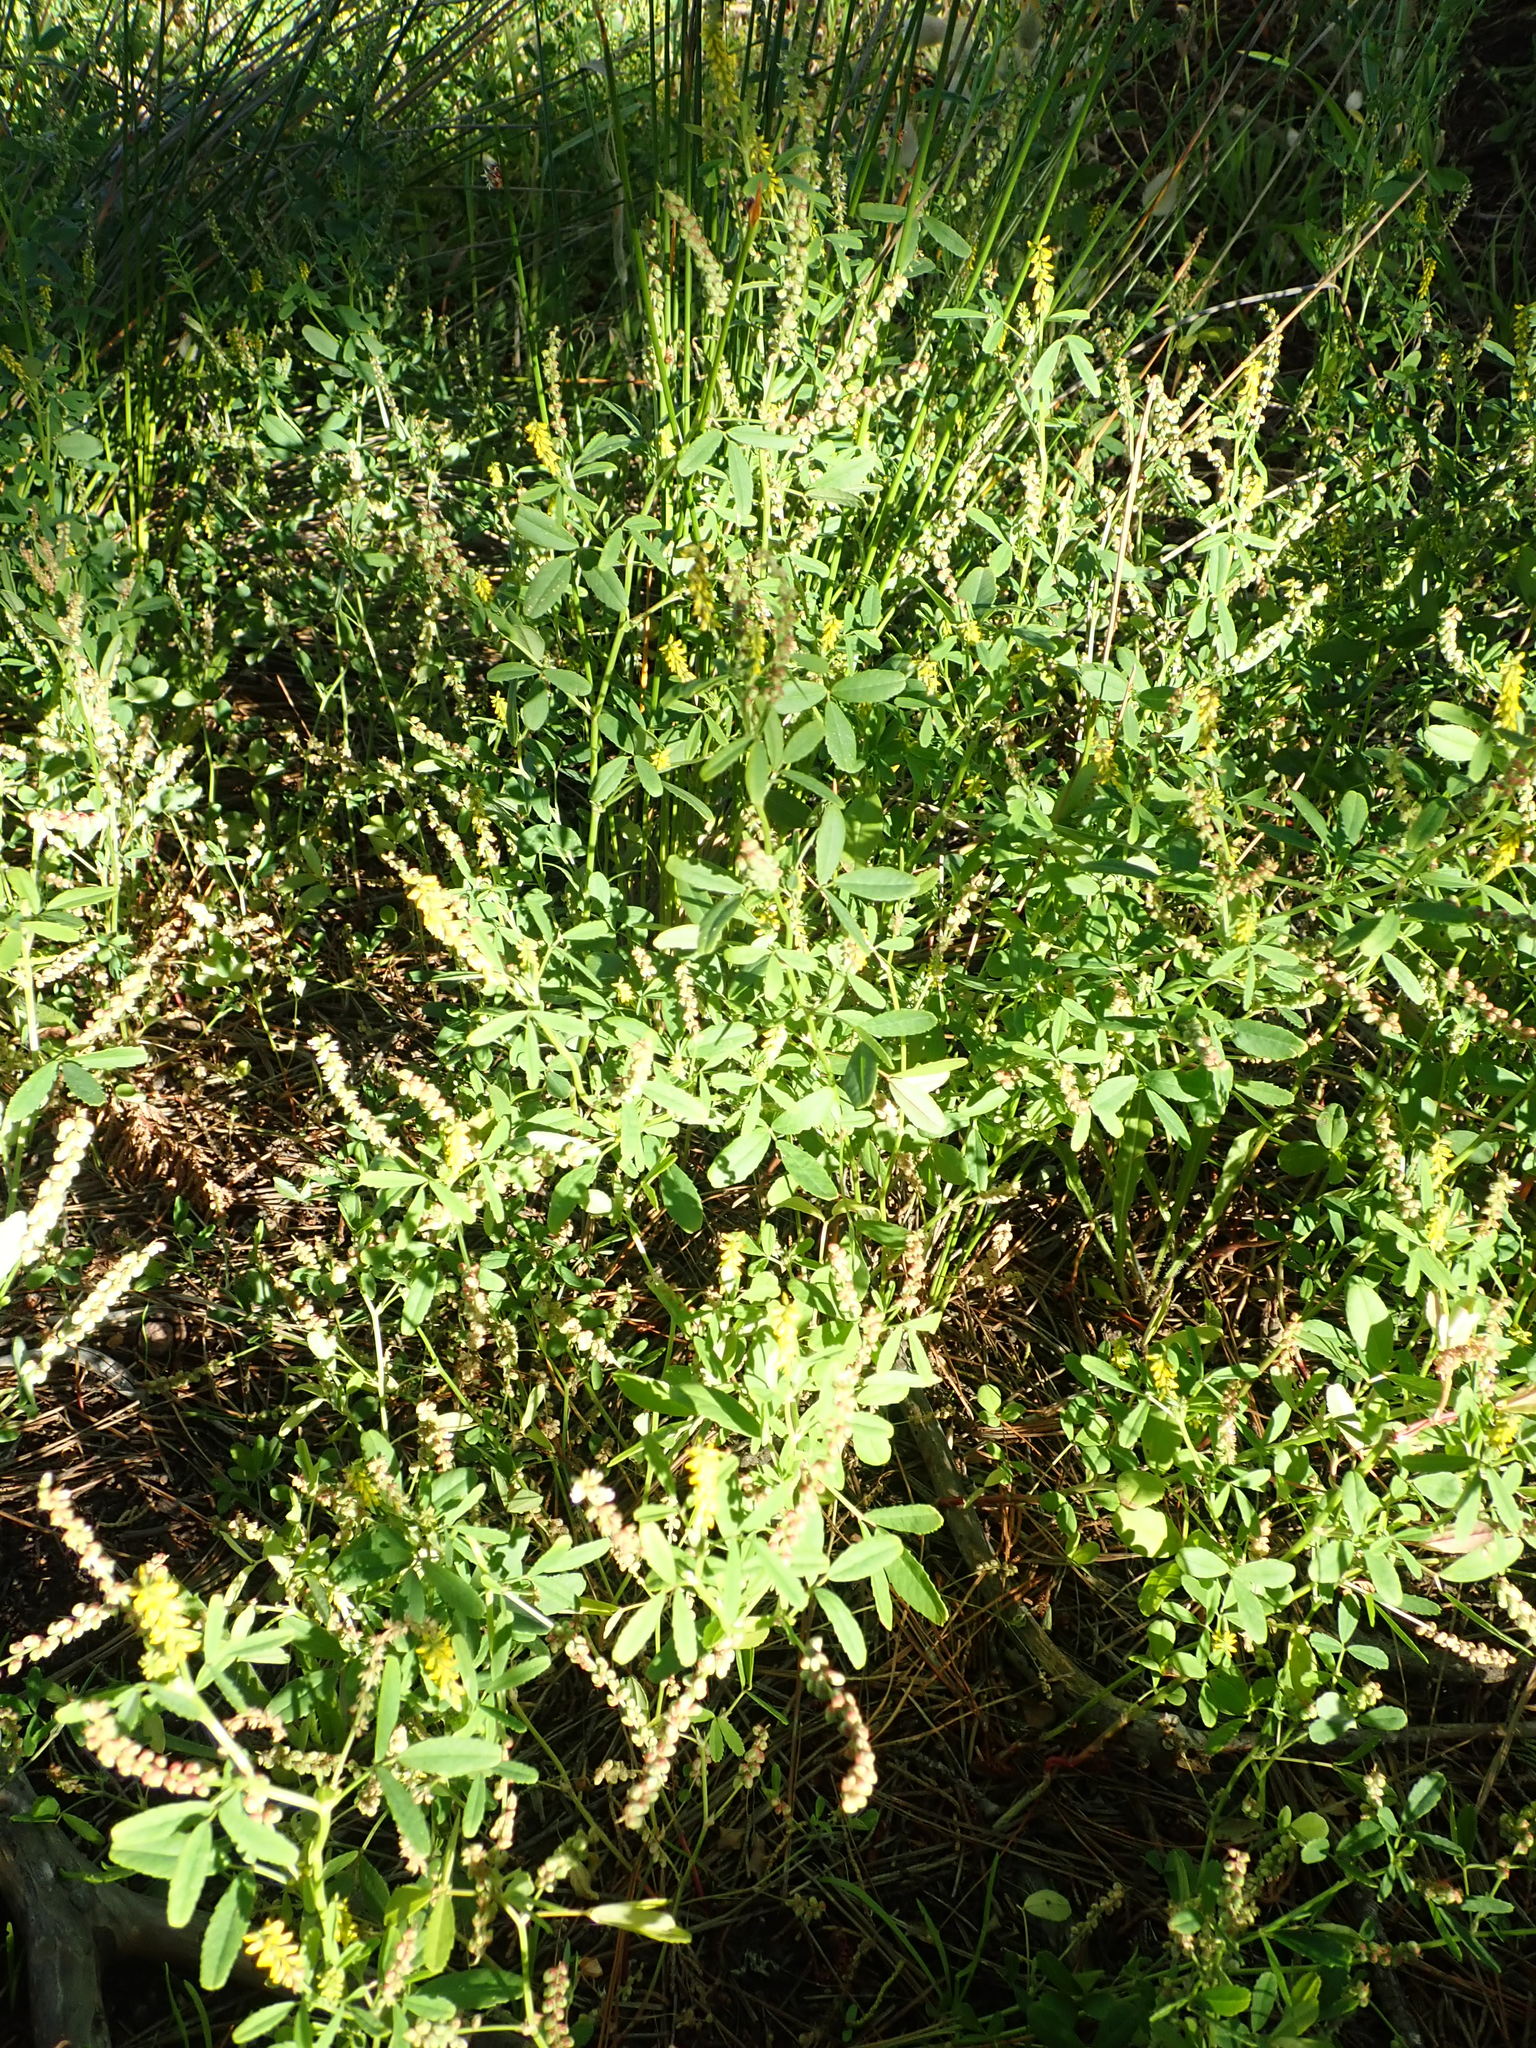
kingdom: Plantae
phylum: Tracheophyta
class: Magnoliopsida
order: Fabales
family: Fabaceae
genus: Melilotus
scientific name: Melilotus indicus
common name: Small melilot
